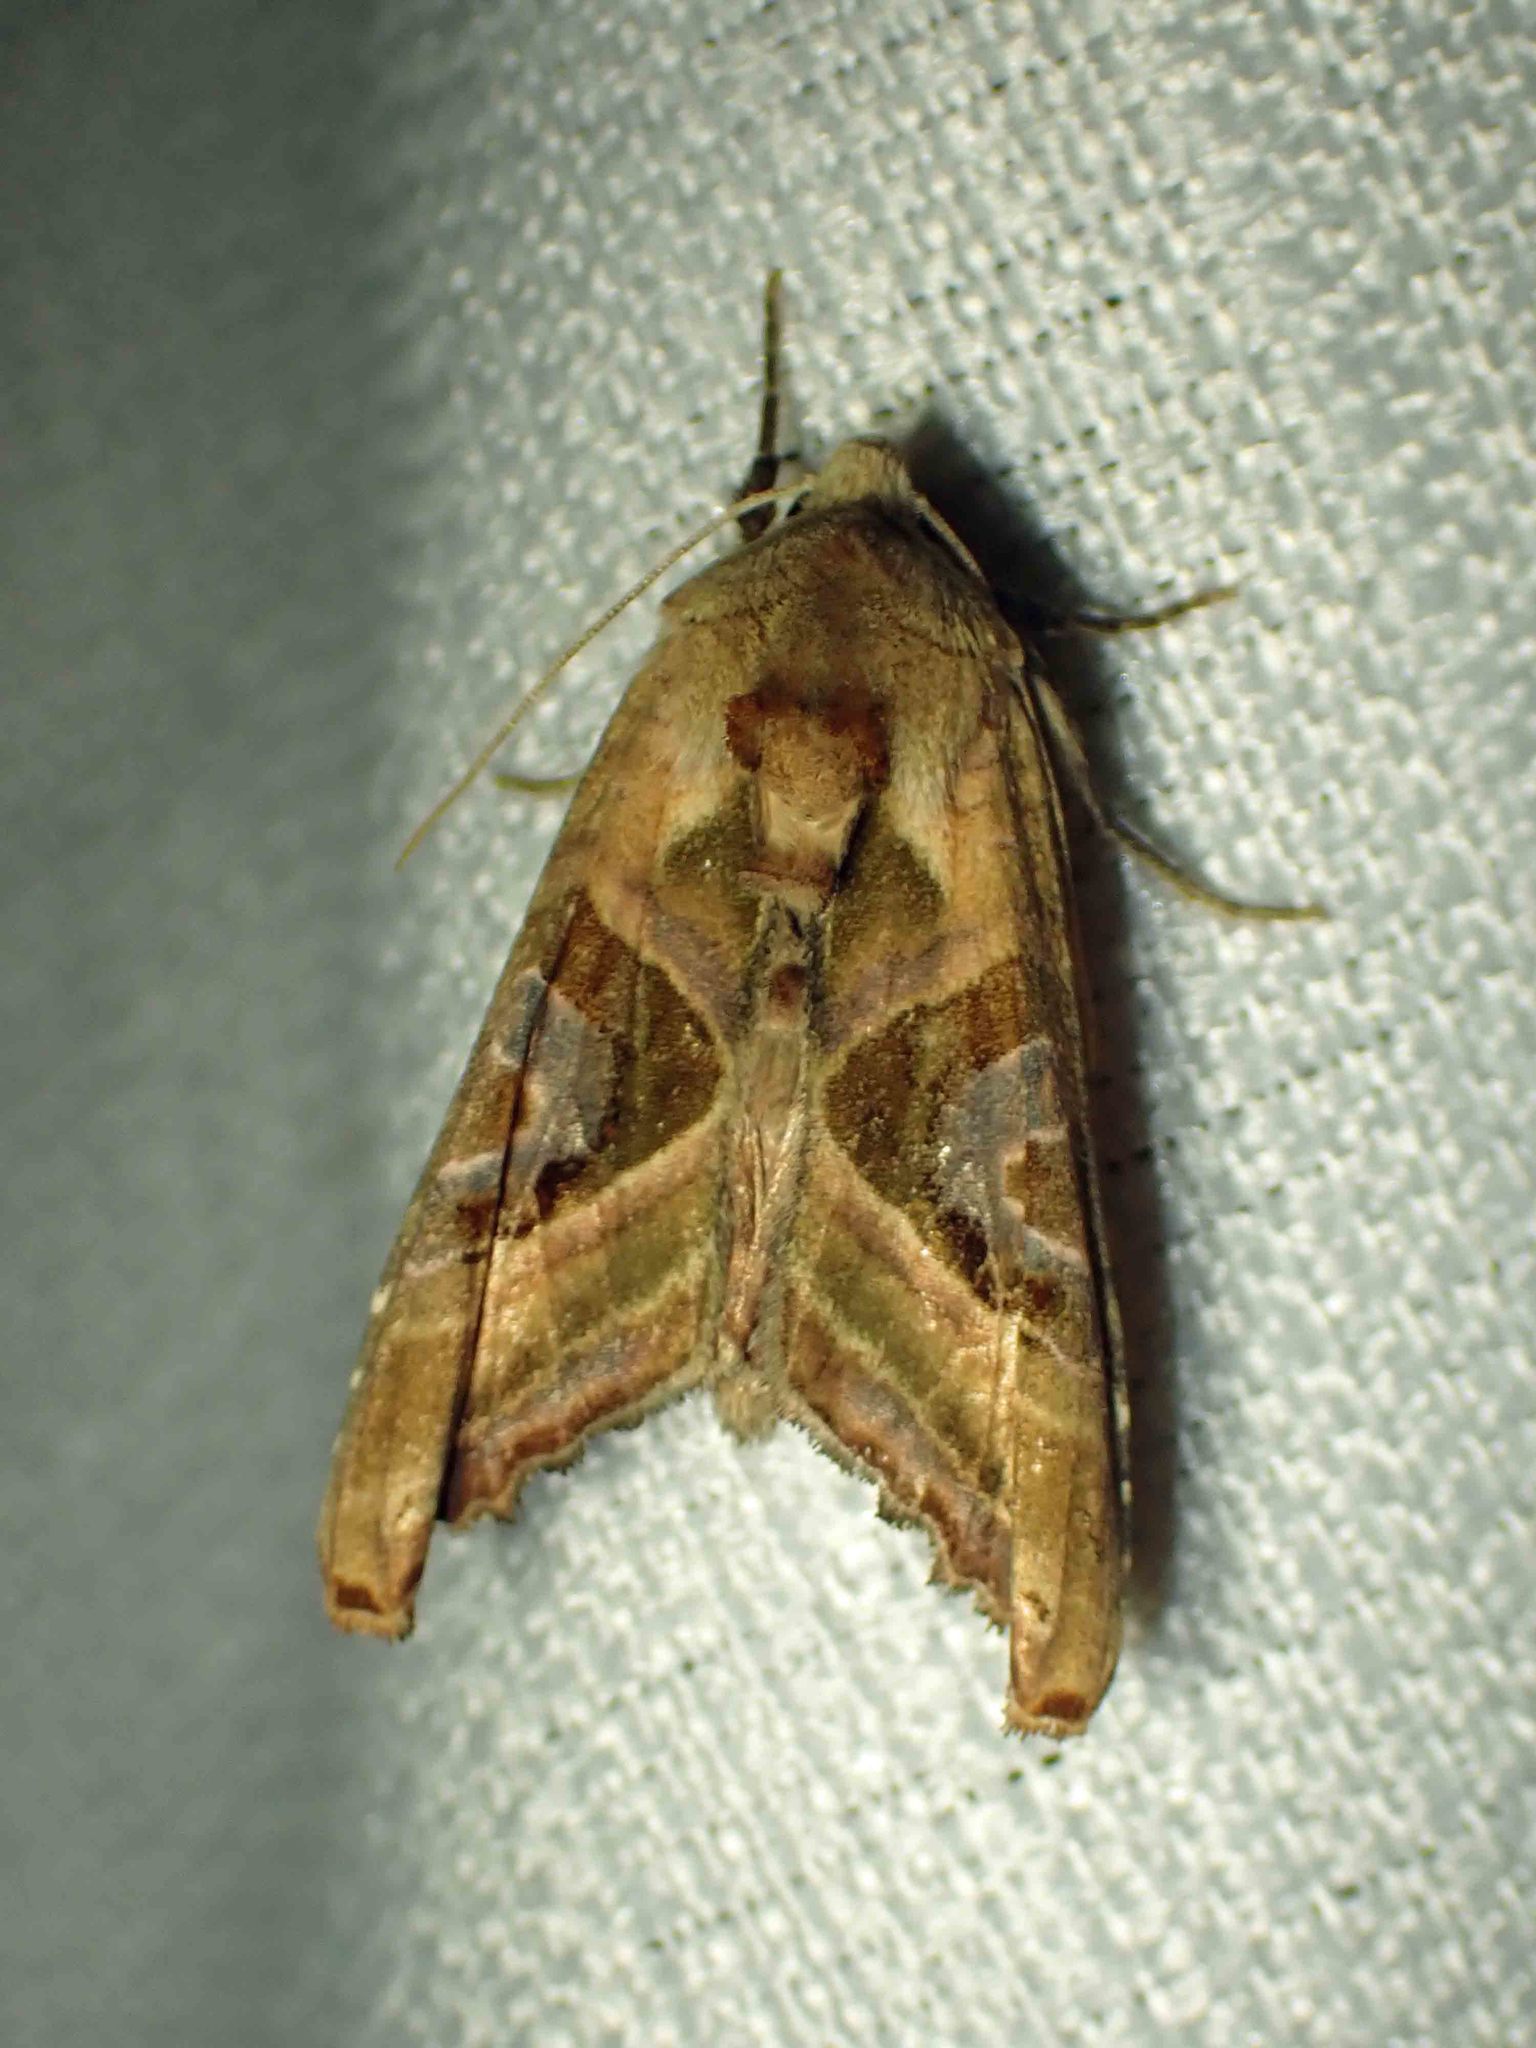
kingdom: Animalia
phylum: Arthropoda
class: Insecta
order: Lepidoptera
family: Noctuidae
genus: Phlogophora
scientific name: Phlogophora iris
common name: Olive angle shades
